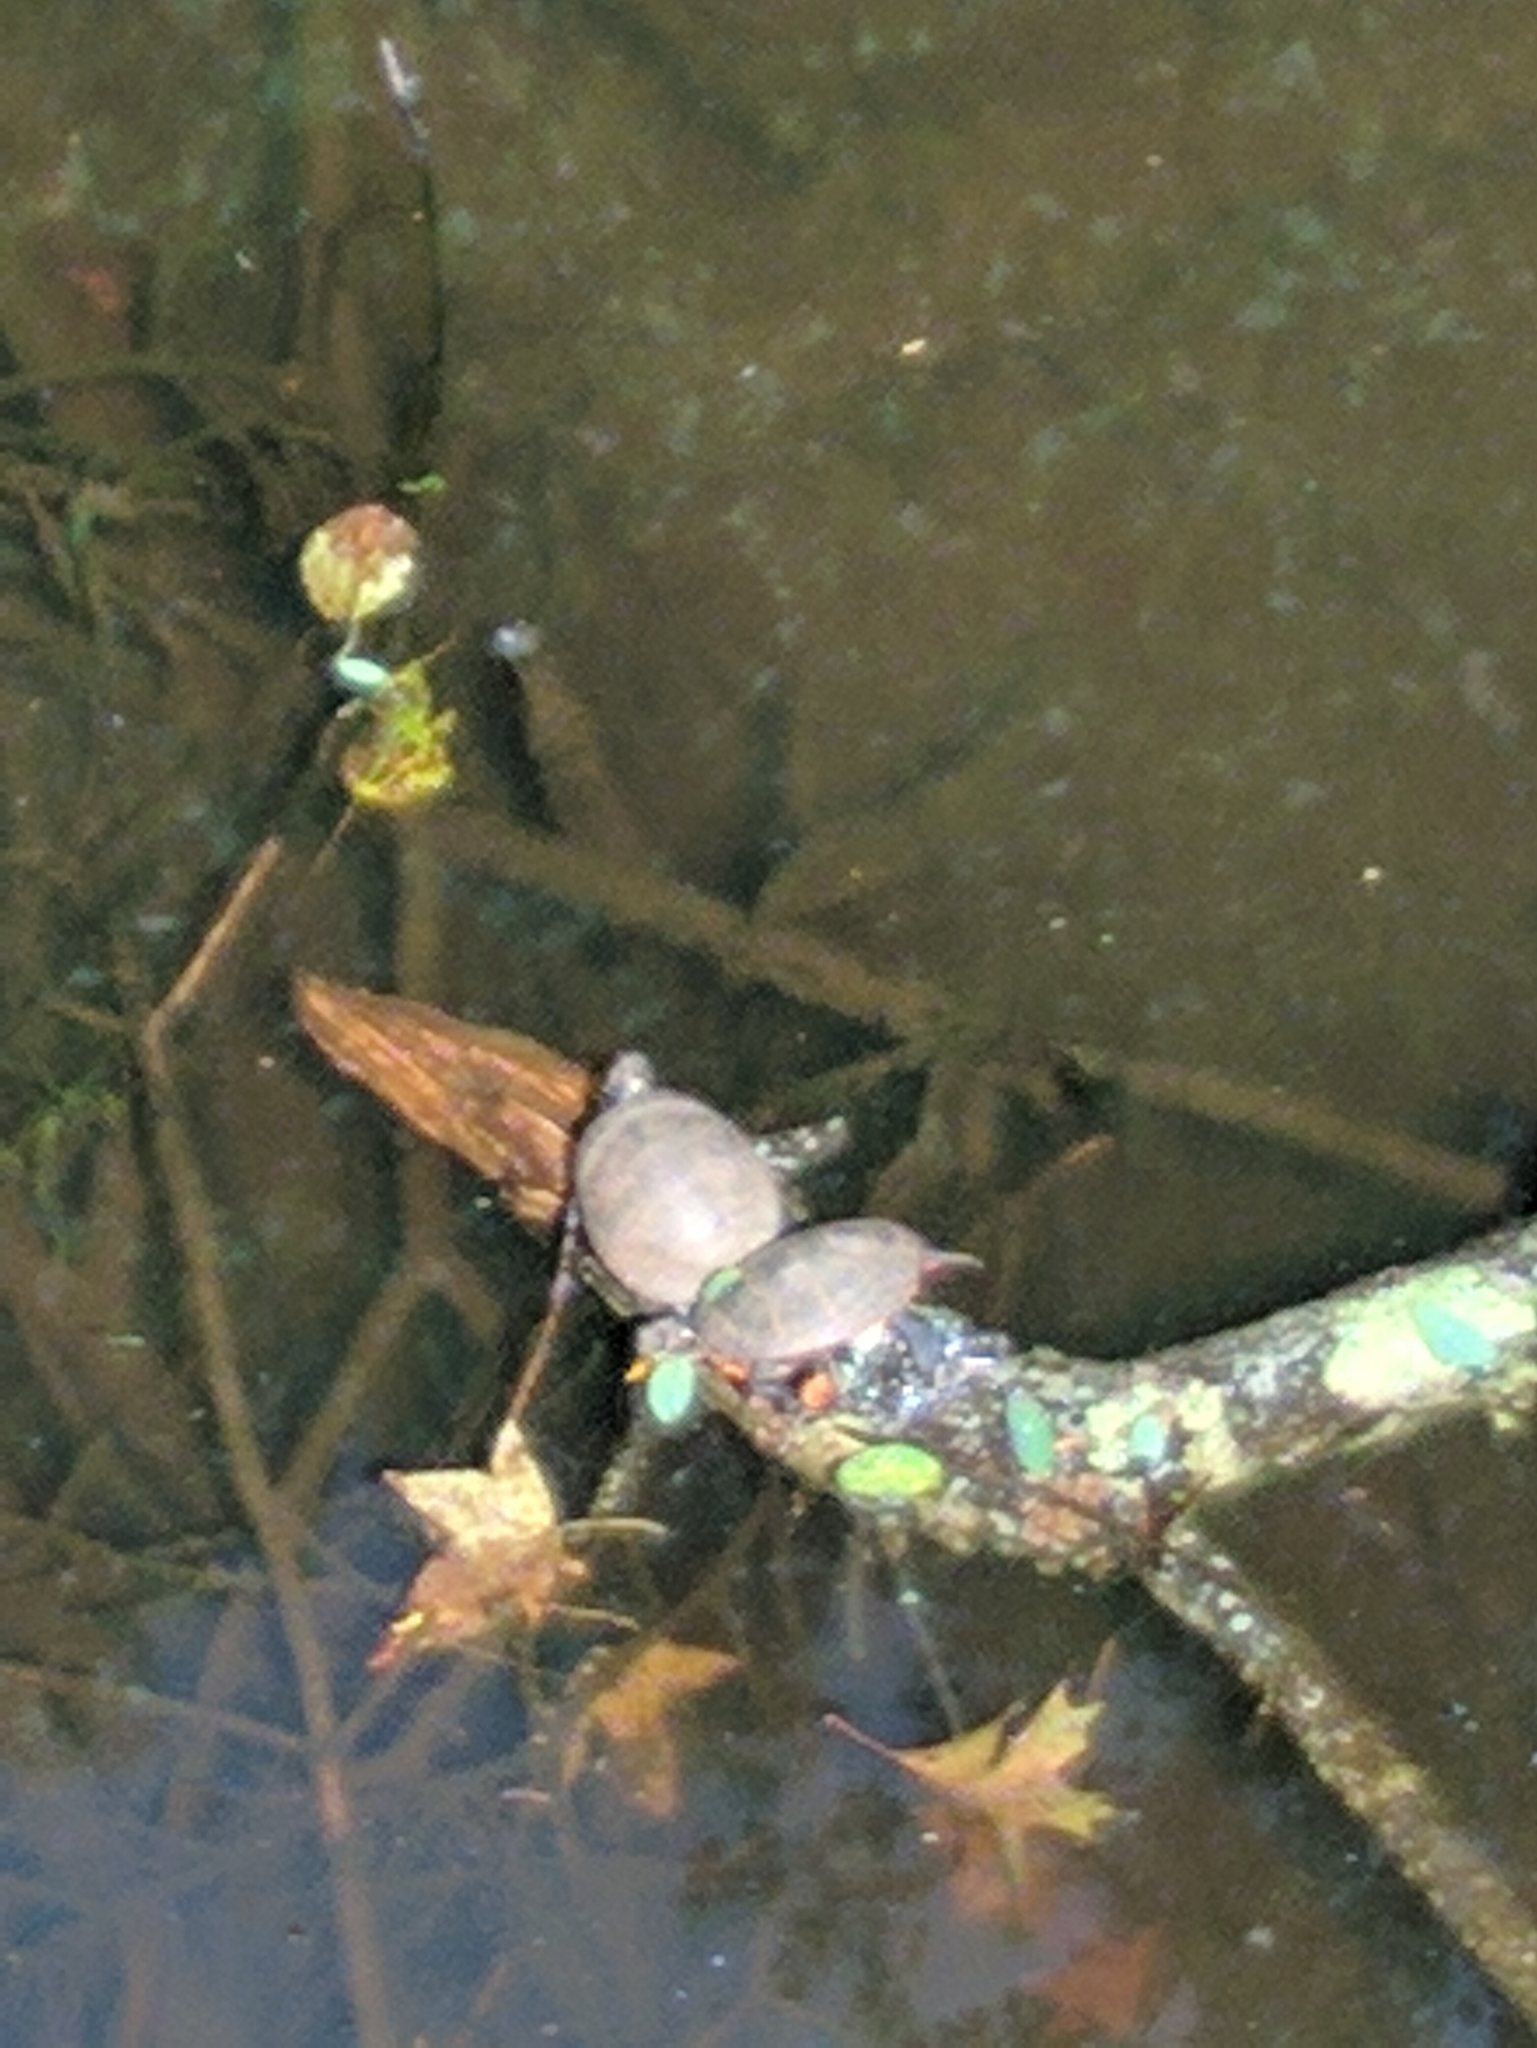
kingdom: Animalia
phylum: Chordata
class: Testudines
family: Emydidae
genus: Chrysemys
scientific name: Chrysemys picta
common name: Painted turtle
